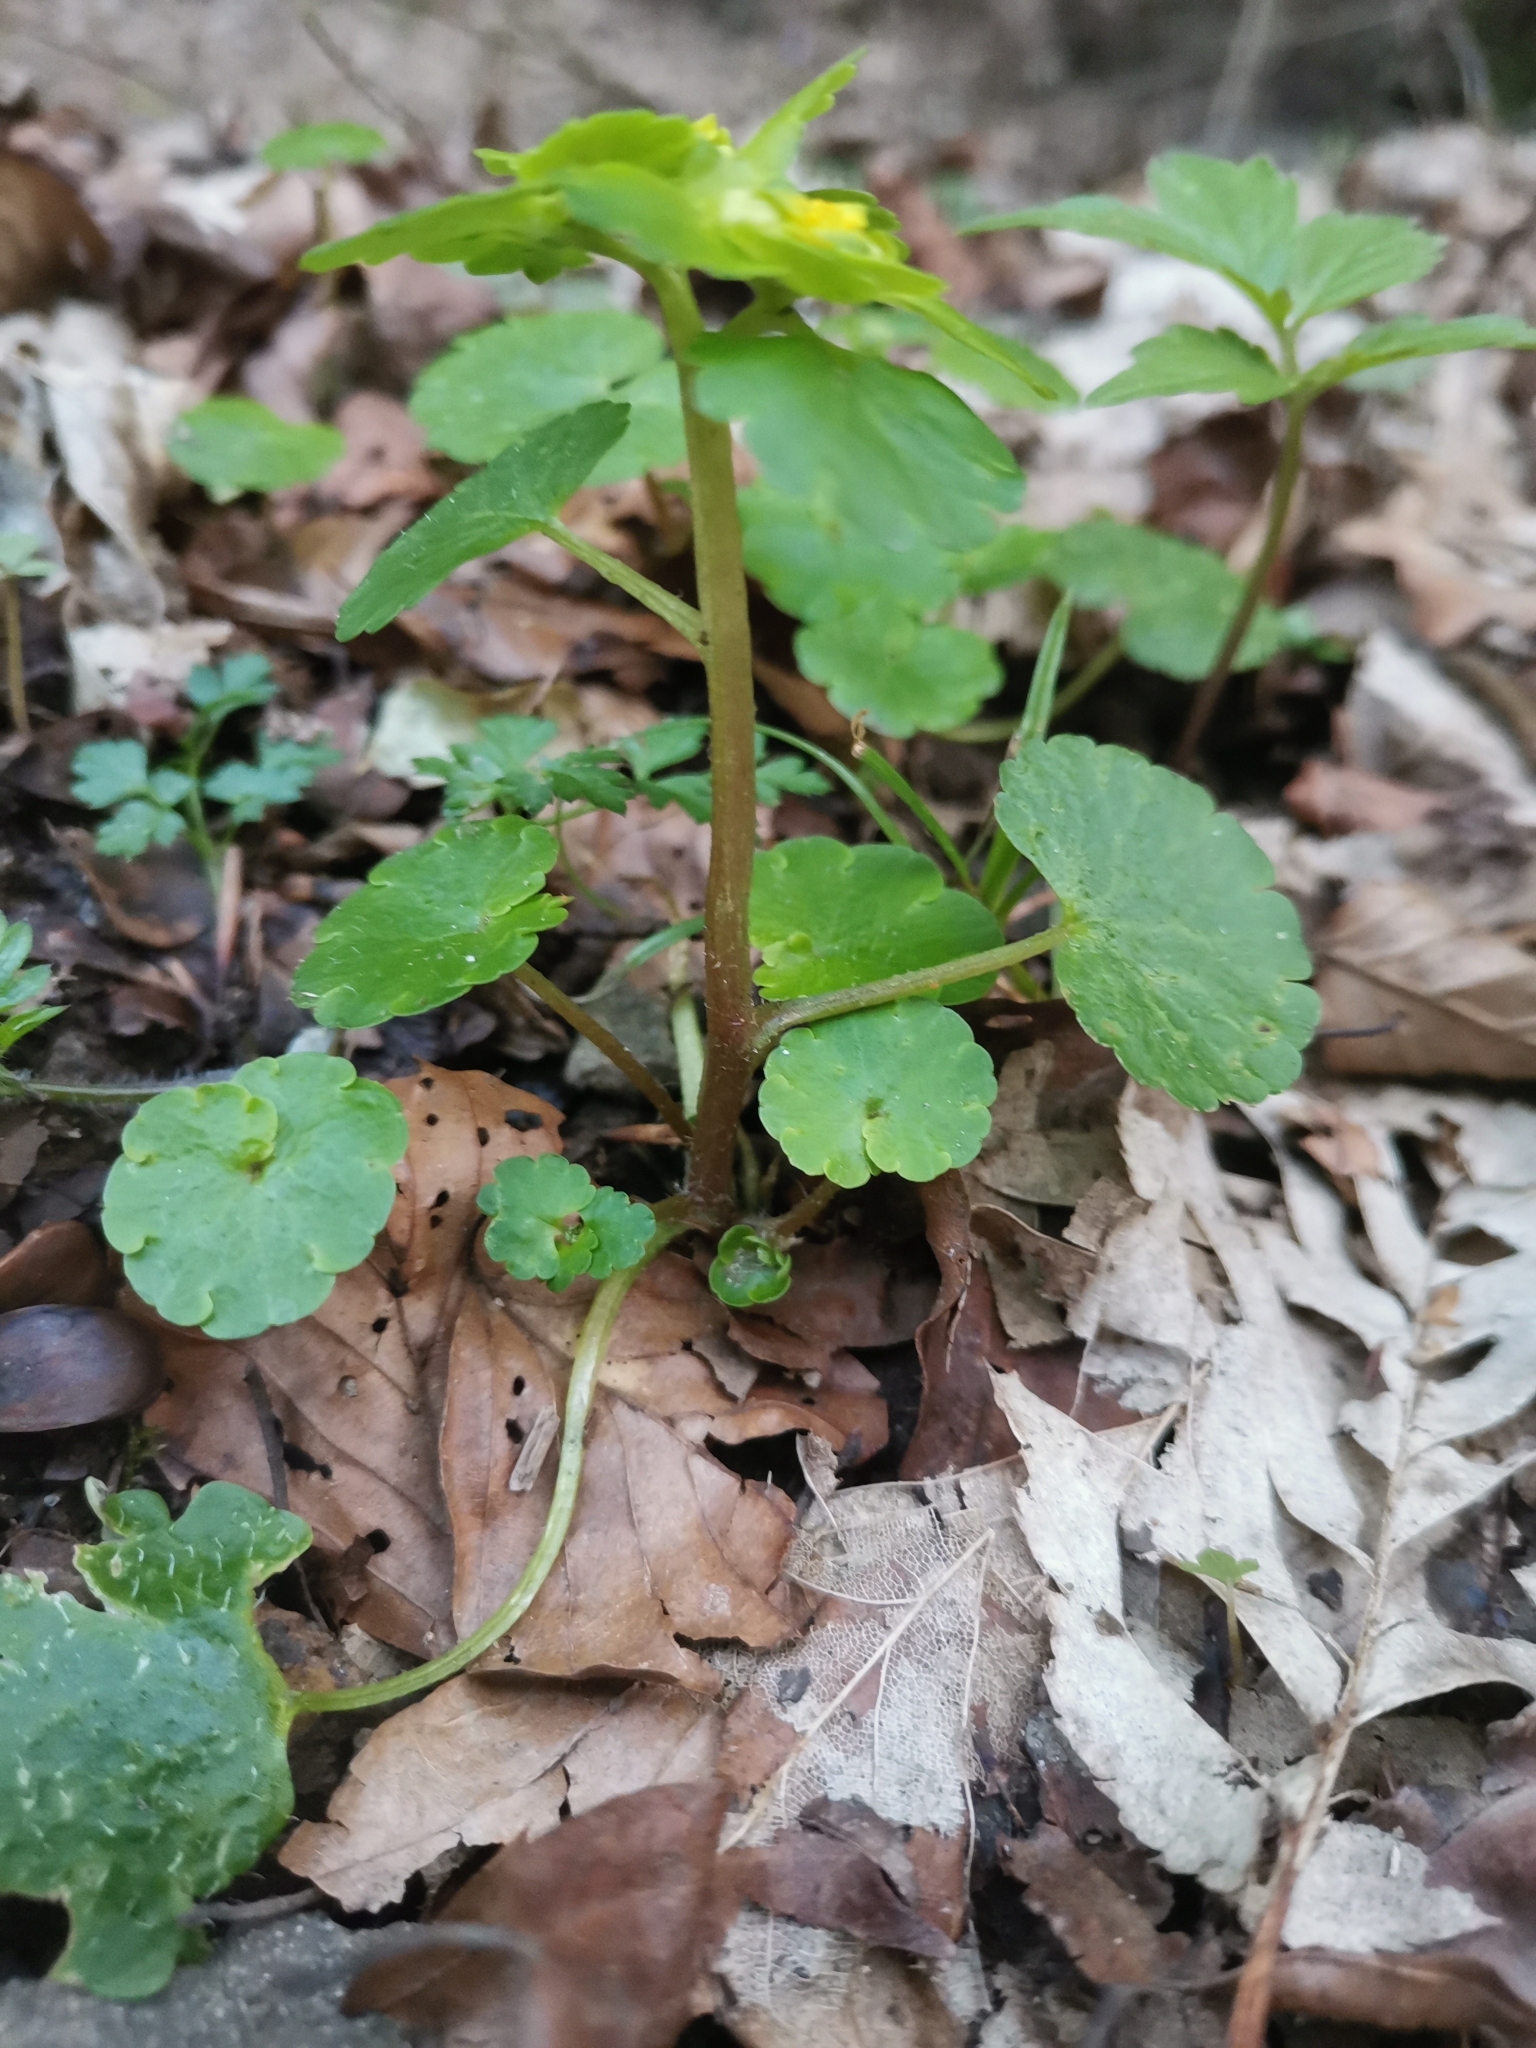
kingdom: Plantae
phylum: Tracheophyta
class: Magnoliopsida
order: Saxifragales
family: Saxifragaceae
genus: Chrysosplenium
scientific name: Chrysosplenium alternifolium
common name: Alternate-leaved golden-saxifrage
